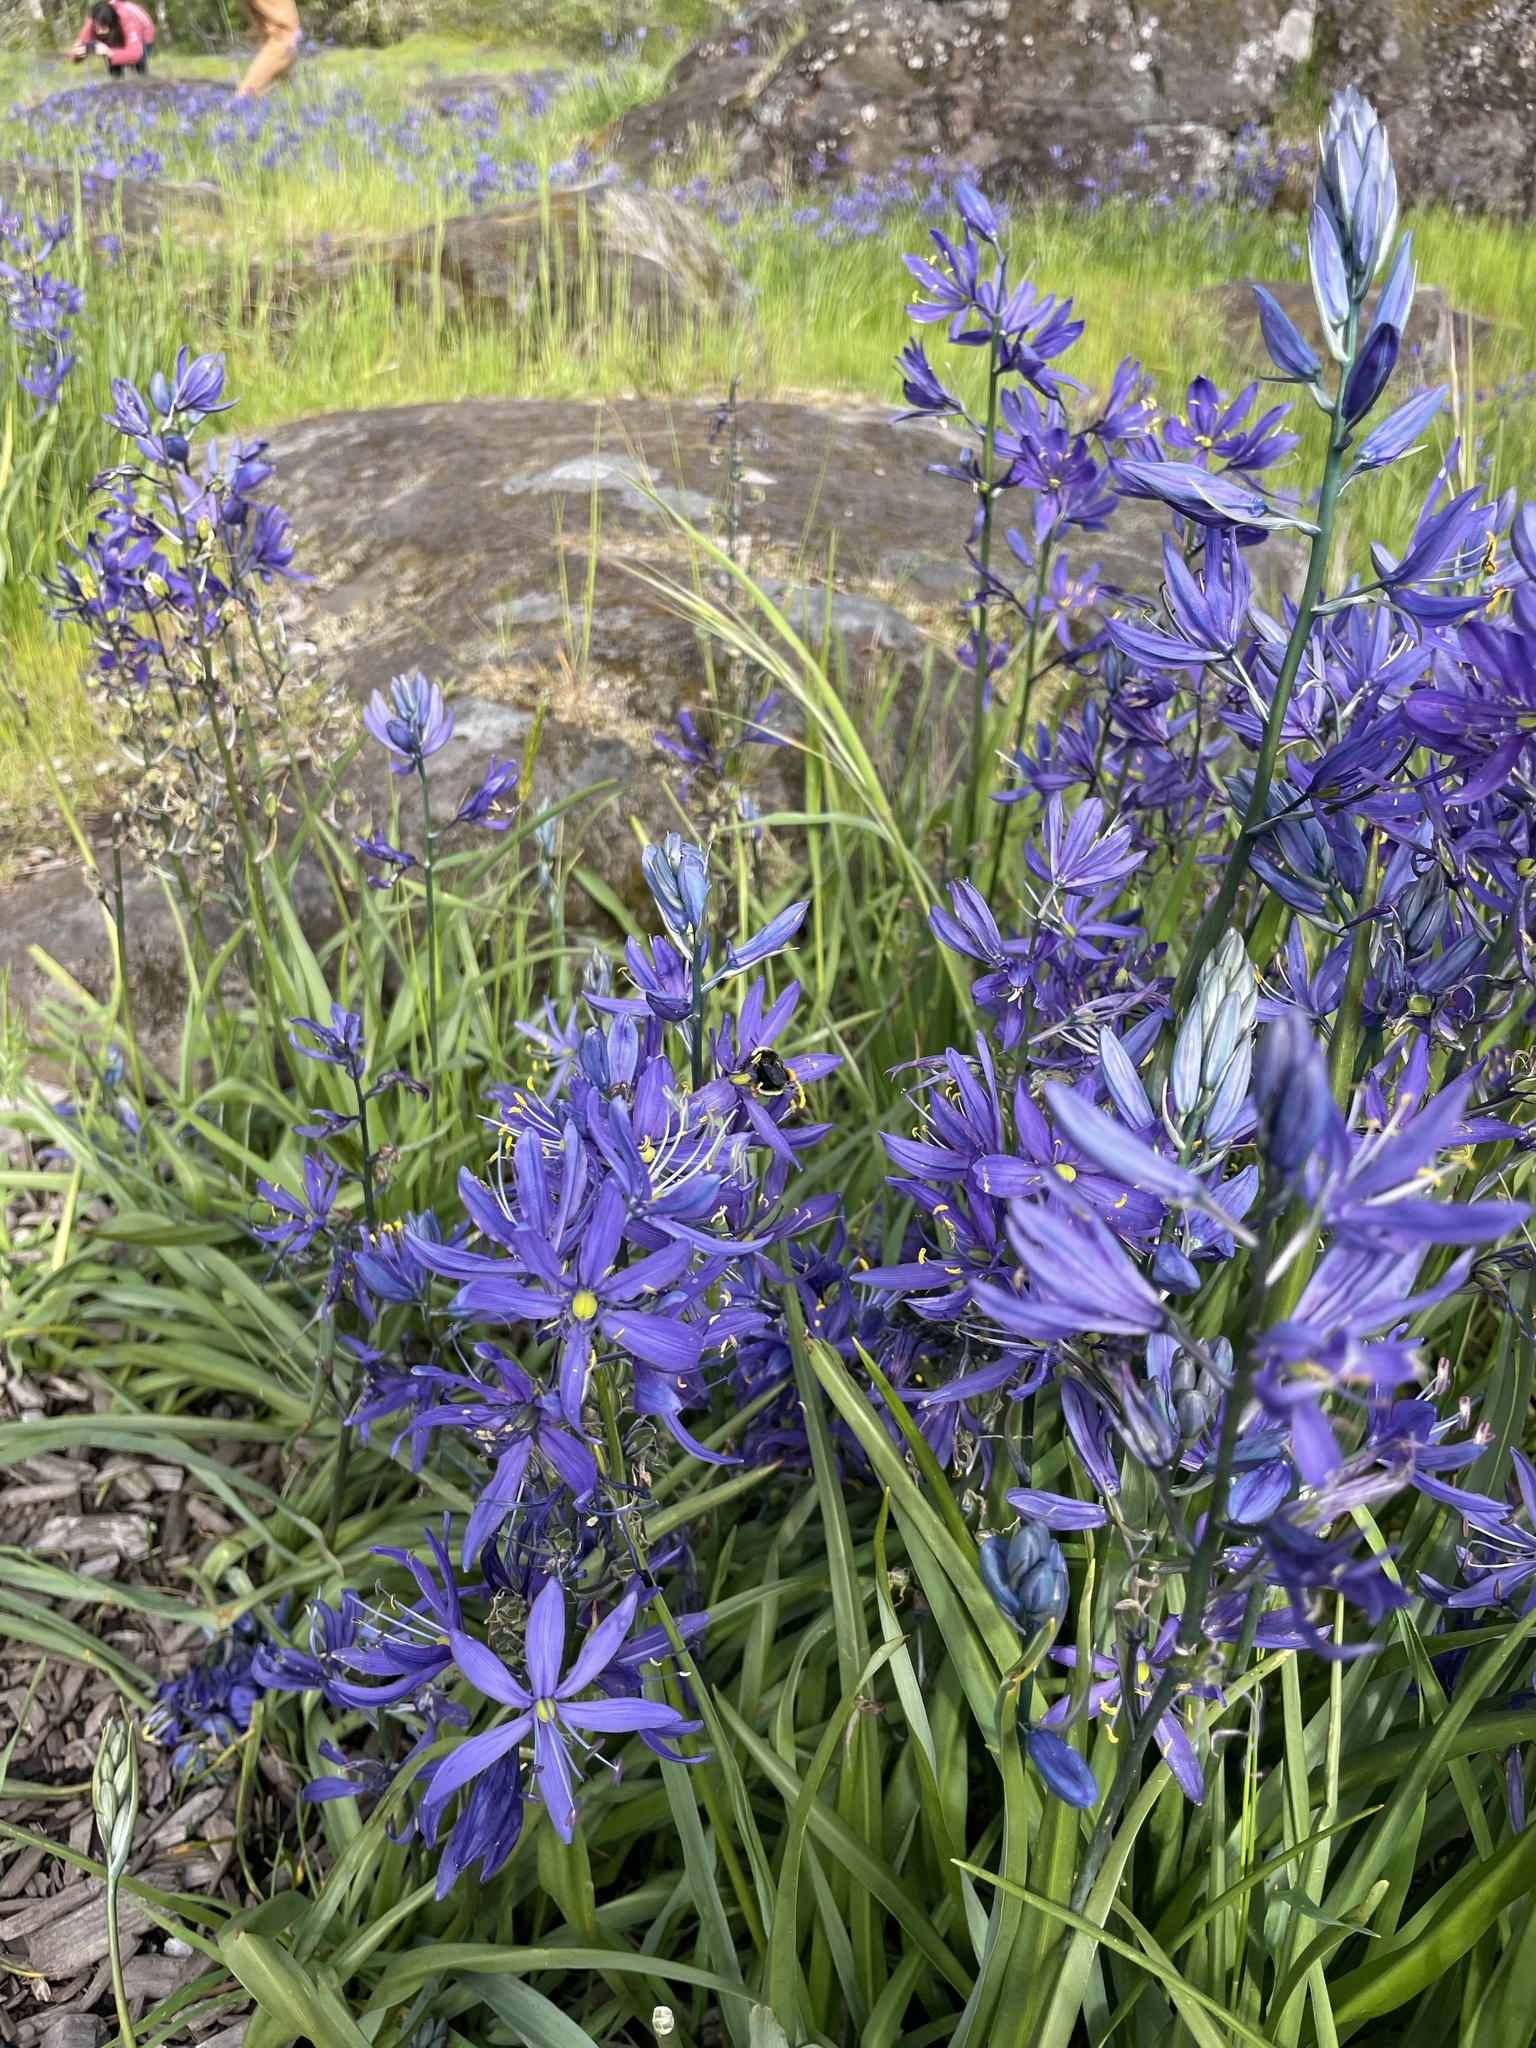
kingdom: Plantae
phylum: Tracheophyta
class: Liliopsida
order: Asparagales
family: Asparagaceae
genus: Camassia
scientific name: Camassia quamash
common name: Common camas
